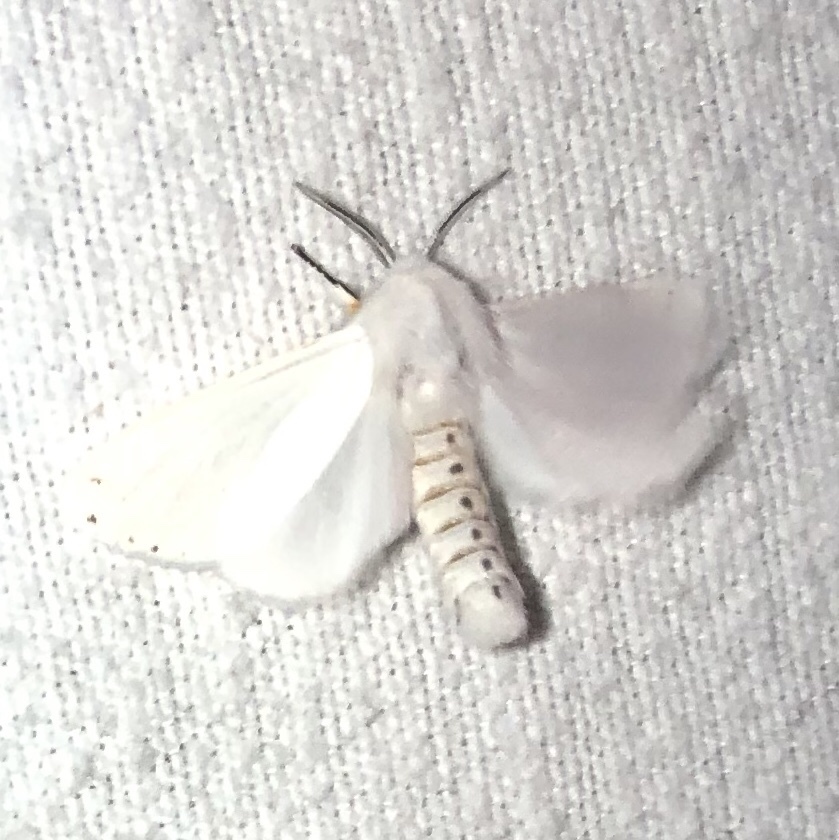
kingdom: Animalia
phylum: Arthropoda
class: Insecta
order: Lepidoptera
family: Erebidae
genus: Hyphantria
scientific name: Hyphantria cunea
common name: American white moth
